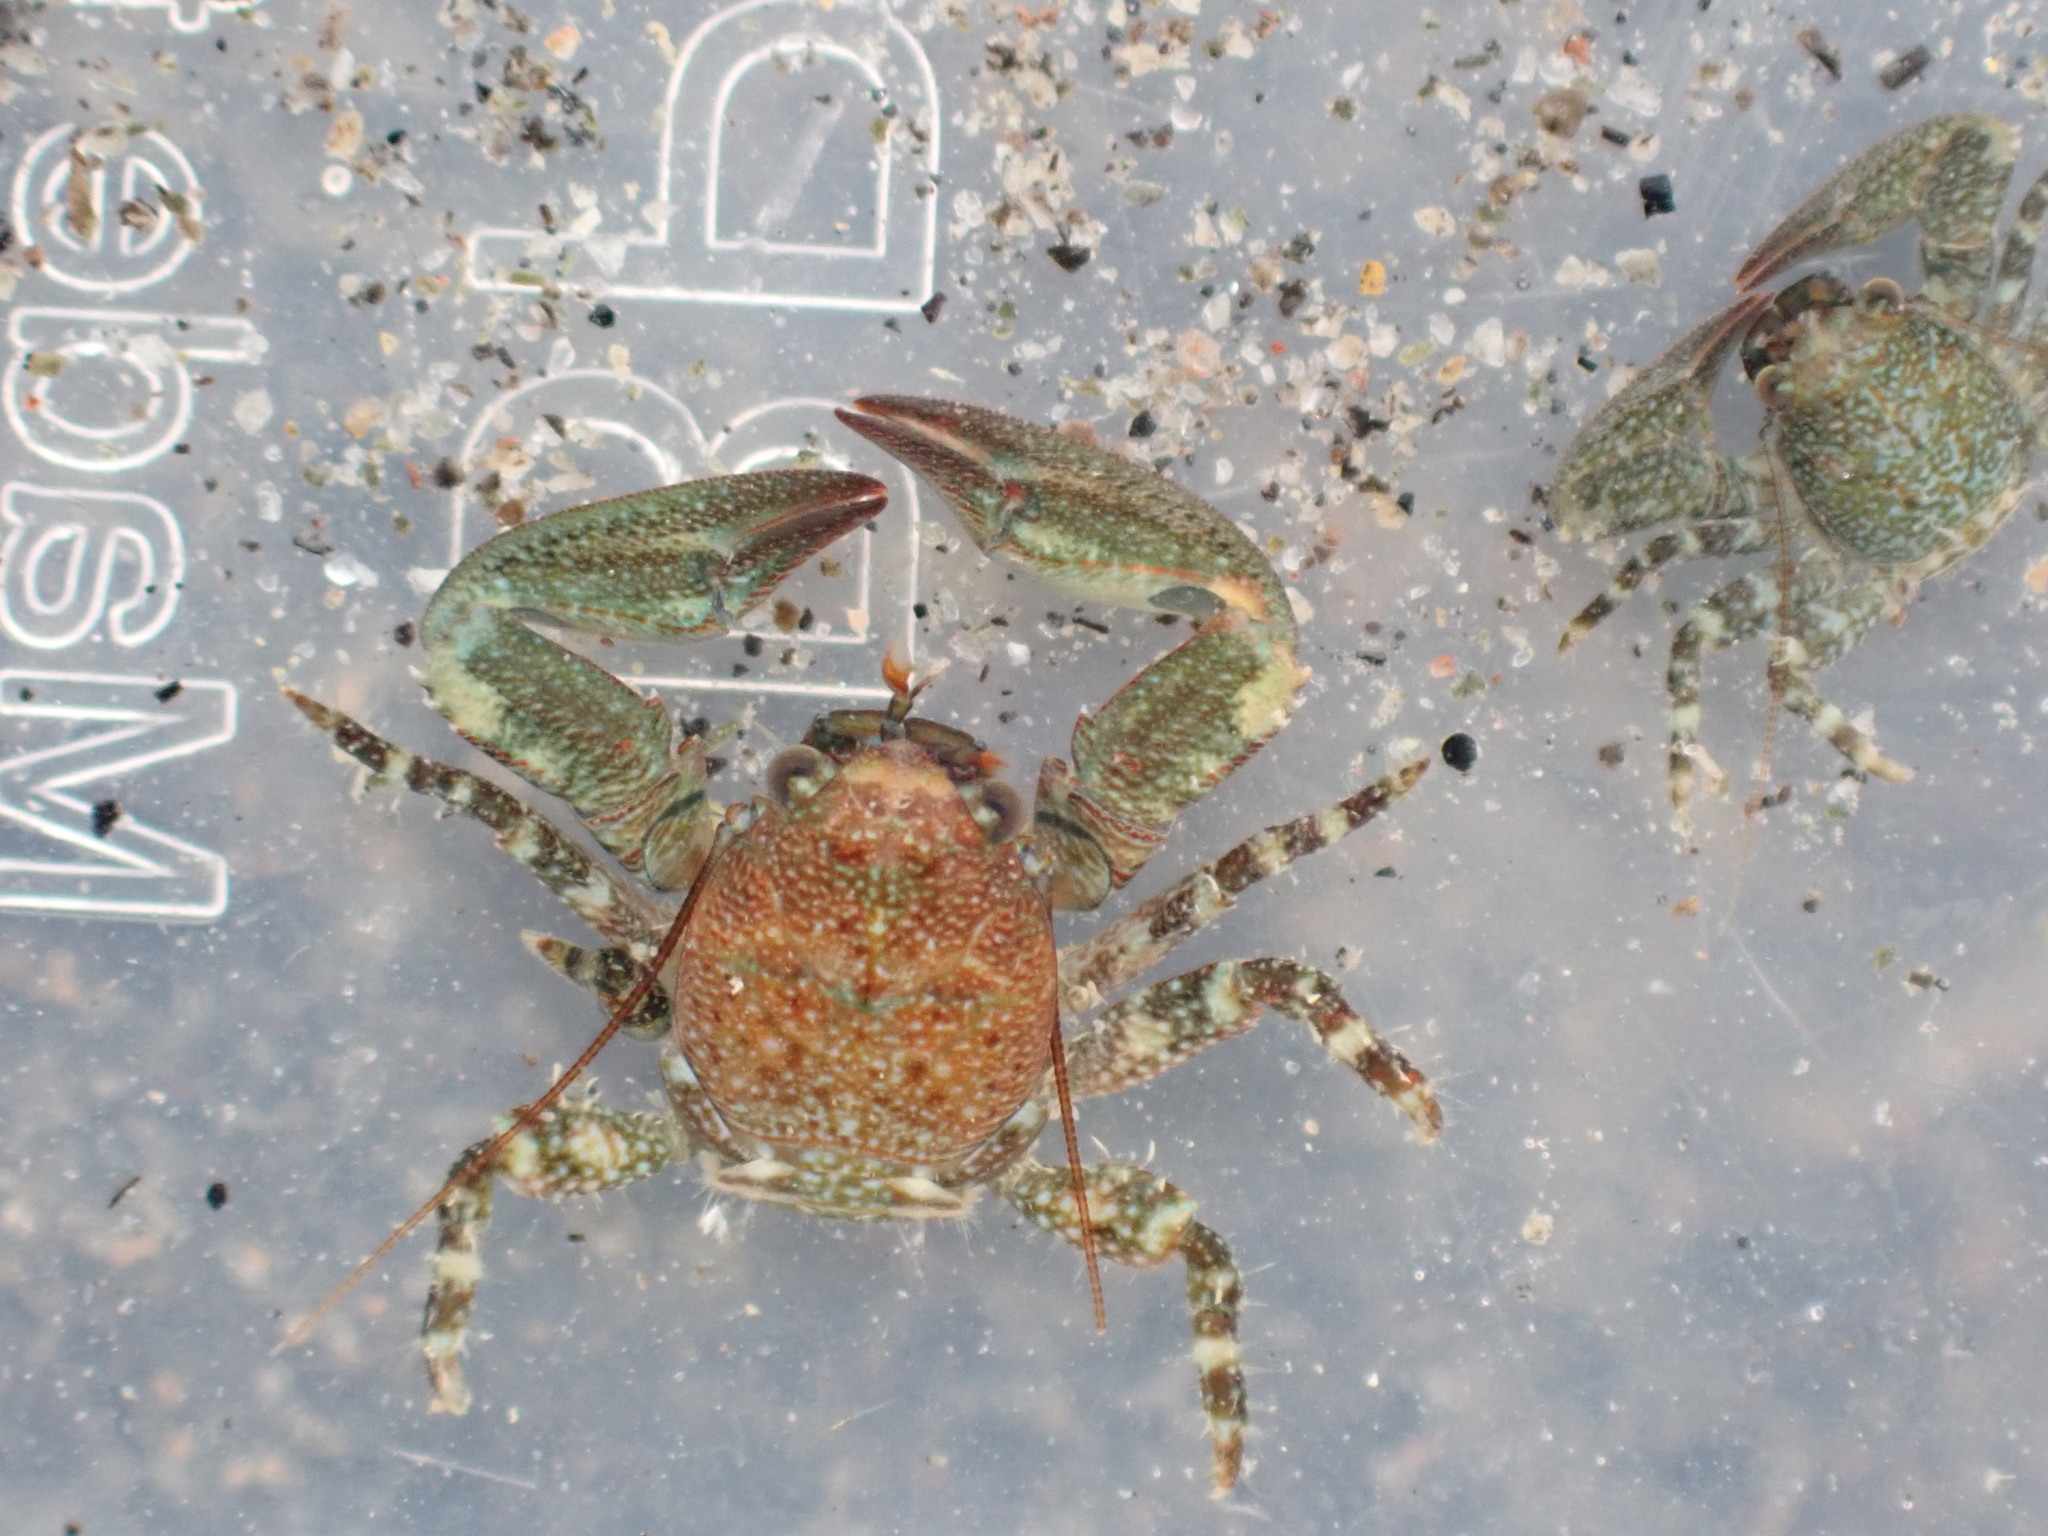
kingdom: Animalia
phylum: Arthropoda
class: Malacostraca
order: Decapoda
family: Porcellanidae
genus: Petrolisthes
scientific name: Petrolisthes elongatus
